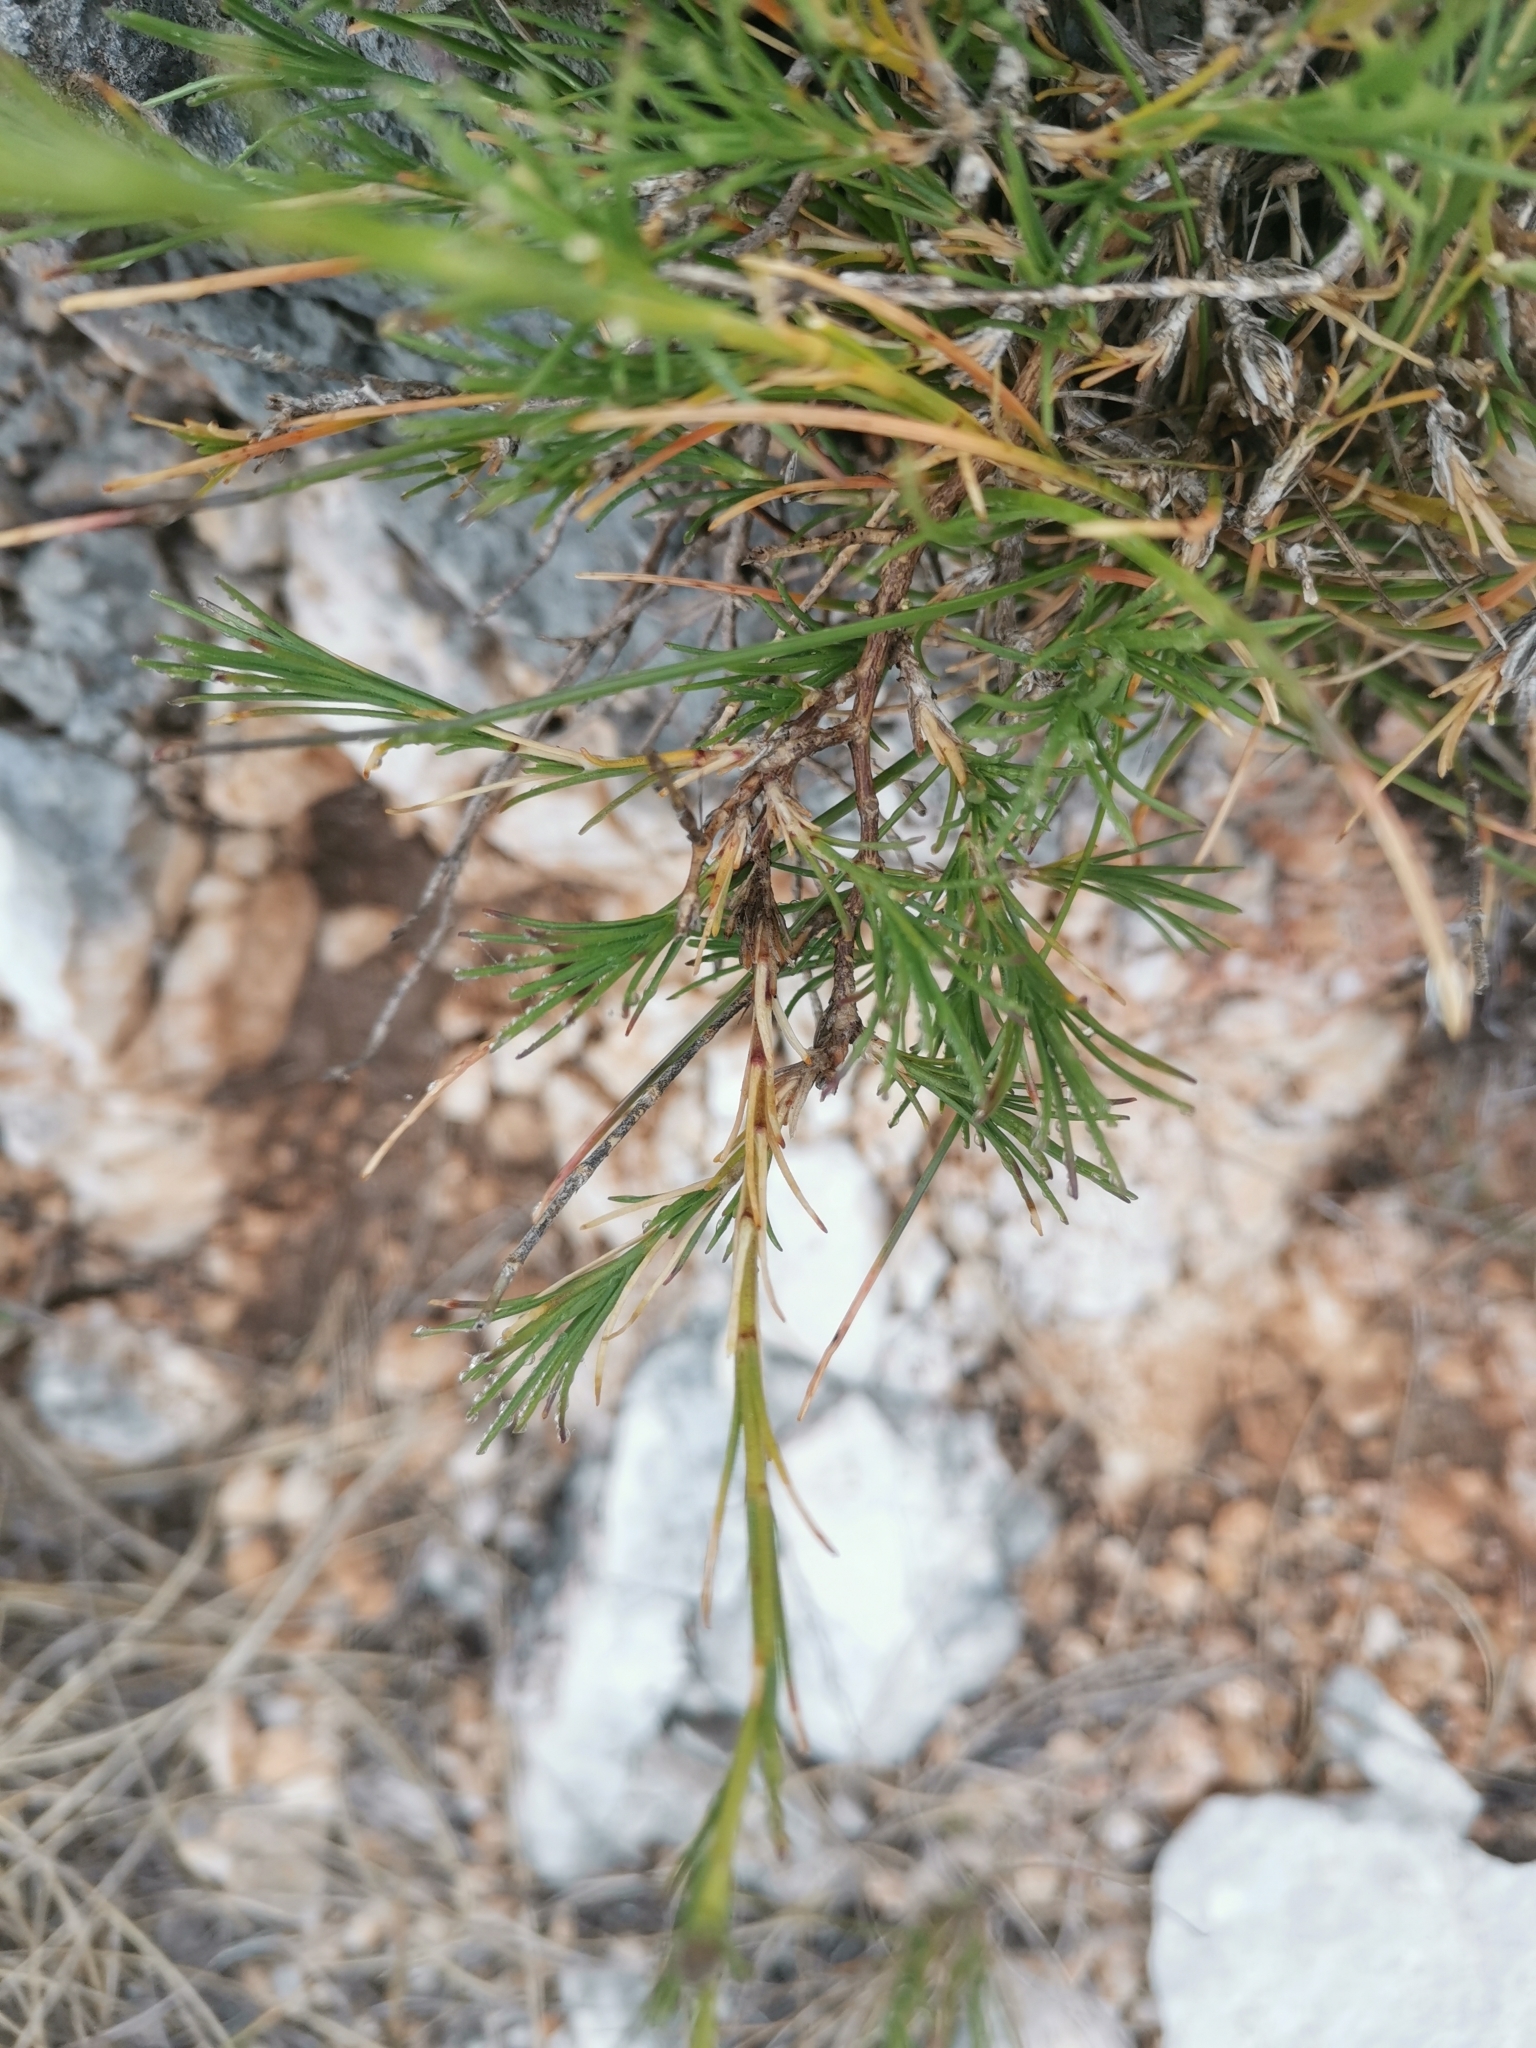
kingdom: Plantae
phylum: Tracheophyta
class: Magnoliopsida
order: Caryophyllales
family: Caryophyllaceae
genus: Cherleria
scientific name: Cherleria capillacea
